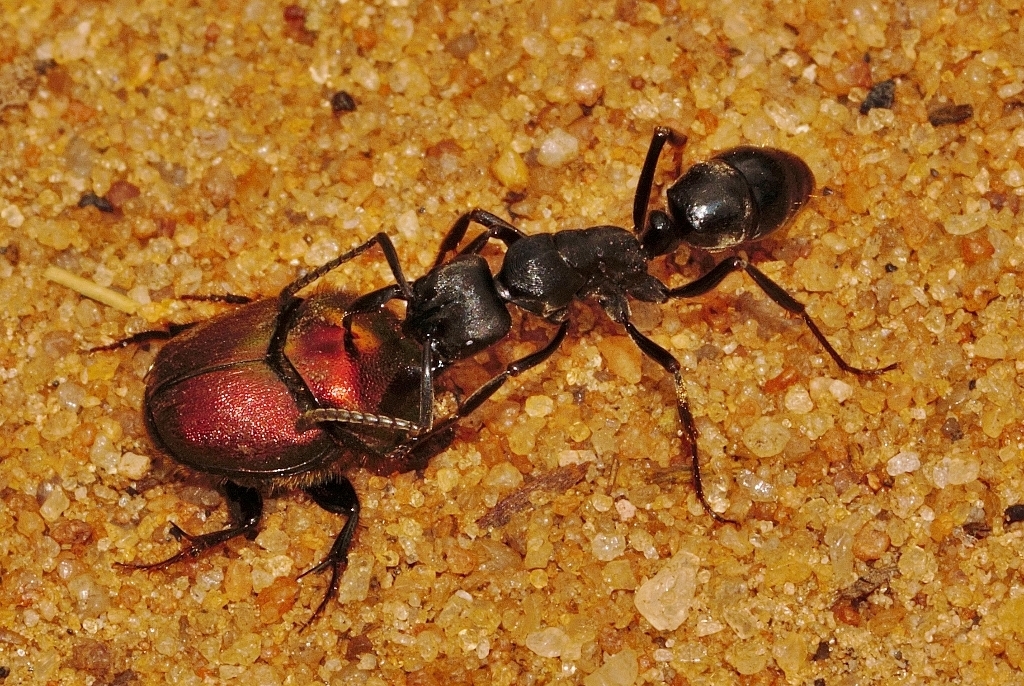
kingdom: Animalia
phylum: Arthropoda
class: Insecta
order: Hymenoptera
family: Formicidae
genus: Paltothyreus
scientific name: Paltothyreus tarsatus
